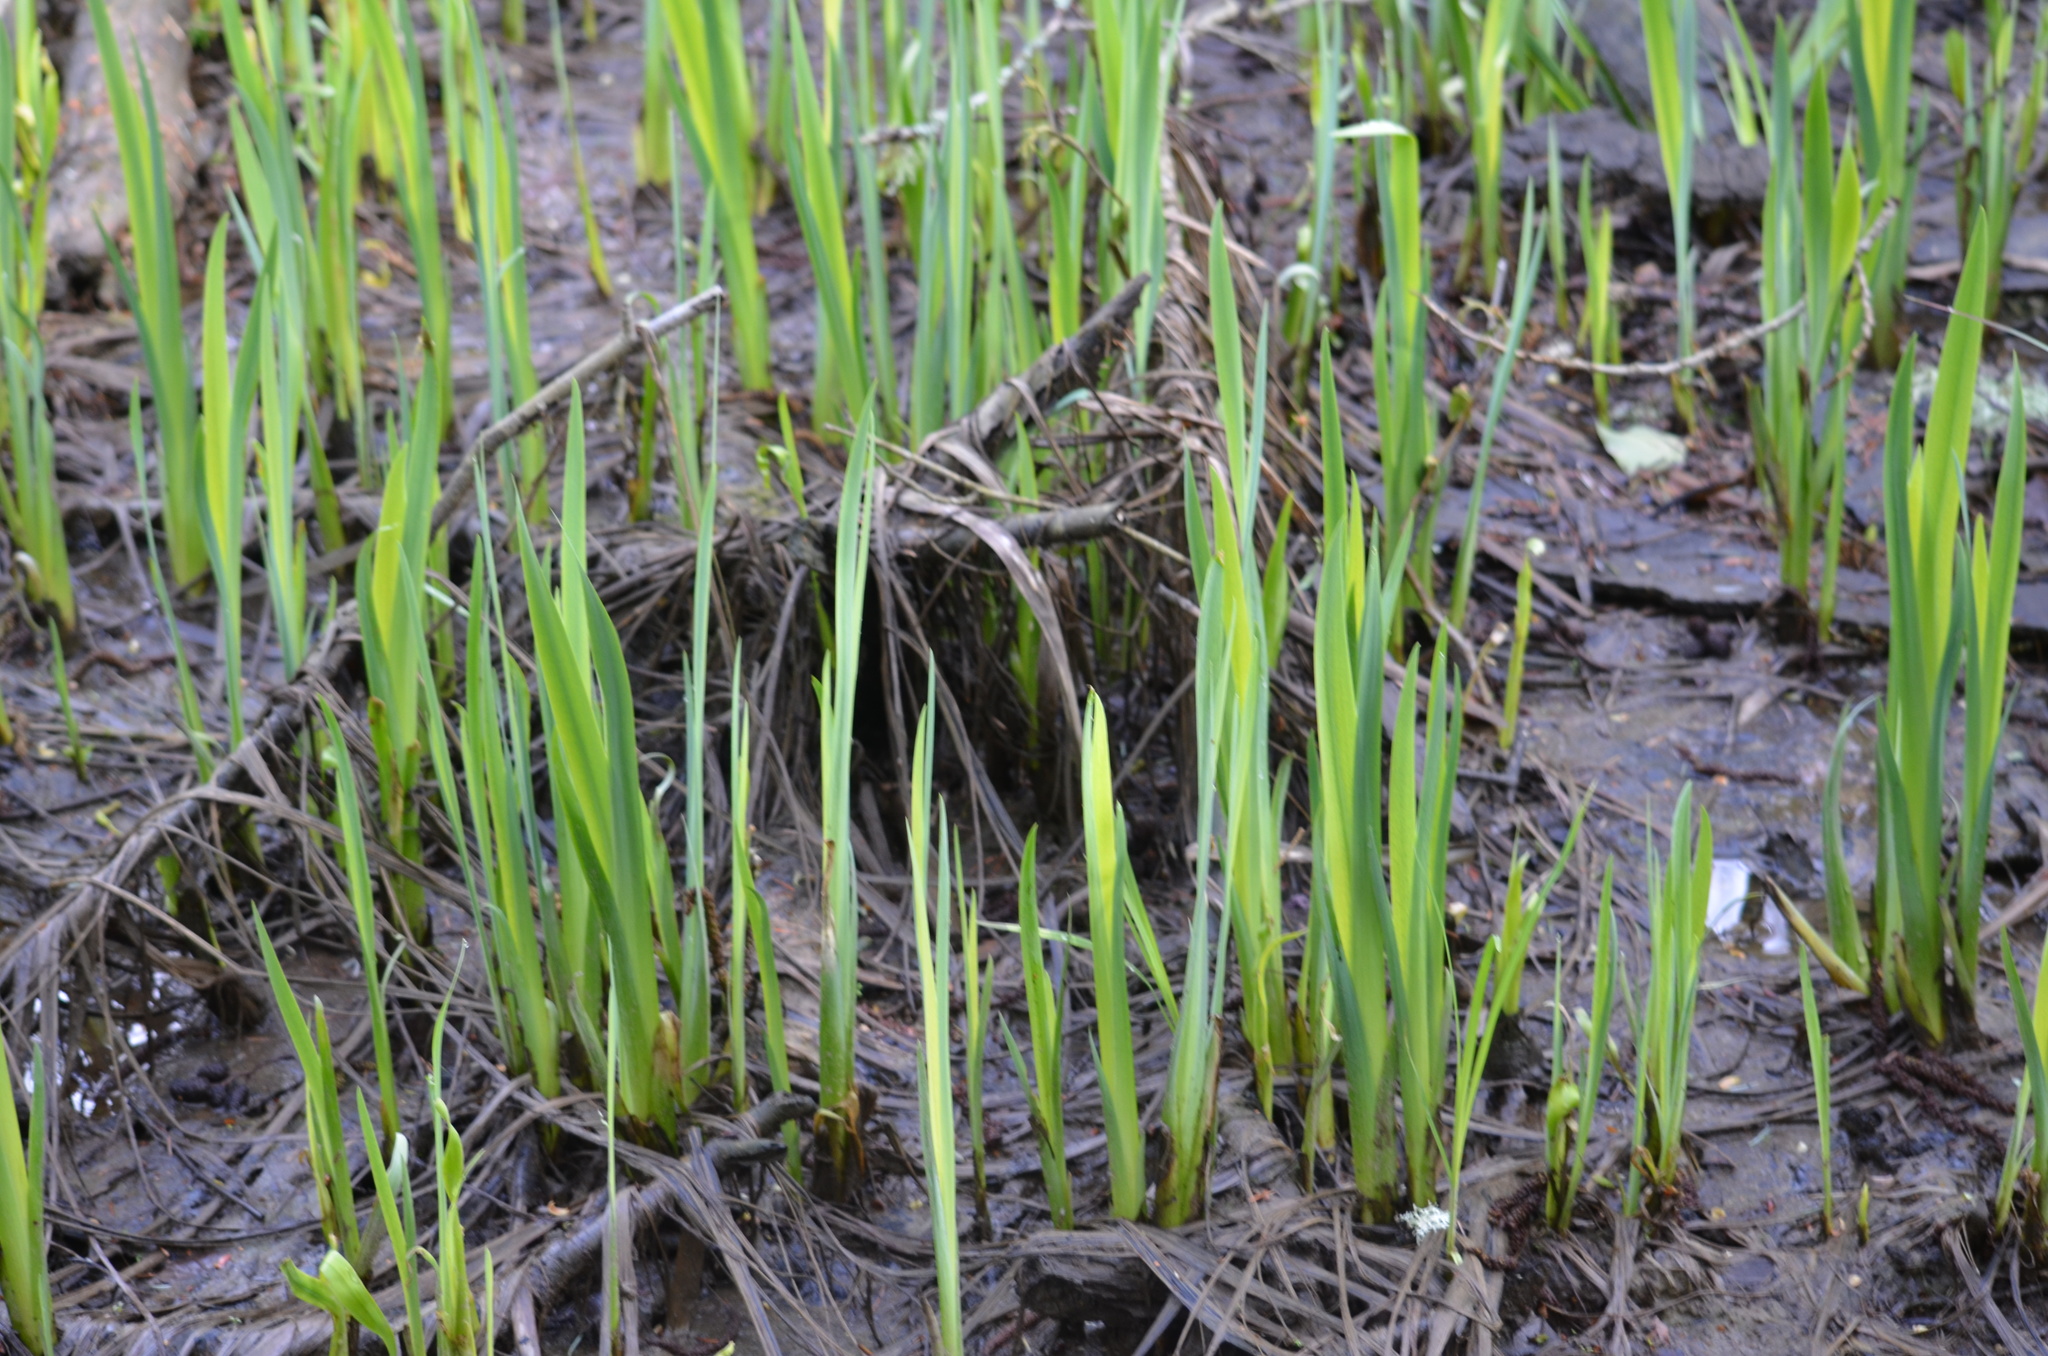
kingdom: Plantae
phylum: Tracheophyta
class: Liliopsida
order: Asparagales
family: Iridaceae
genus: Iris
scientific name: Iris pseudacorus
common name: Yellow flag
